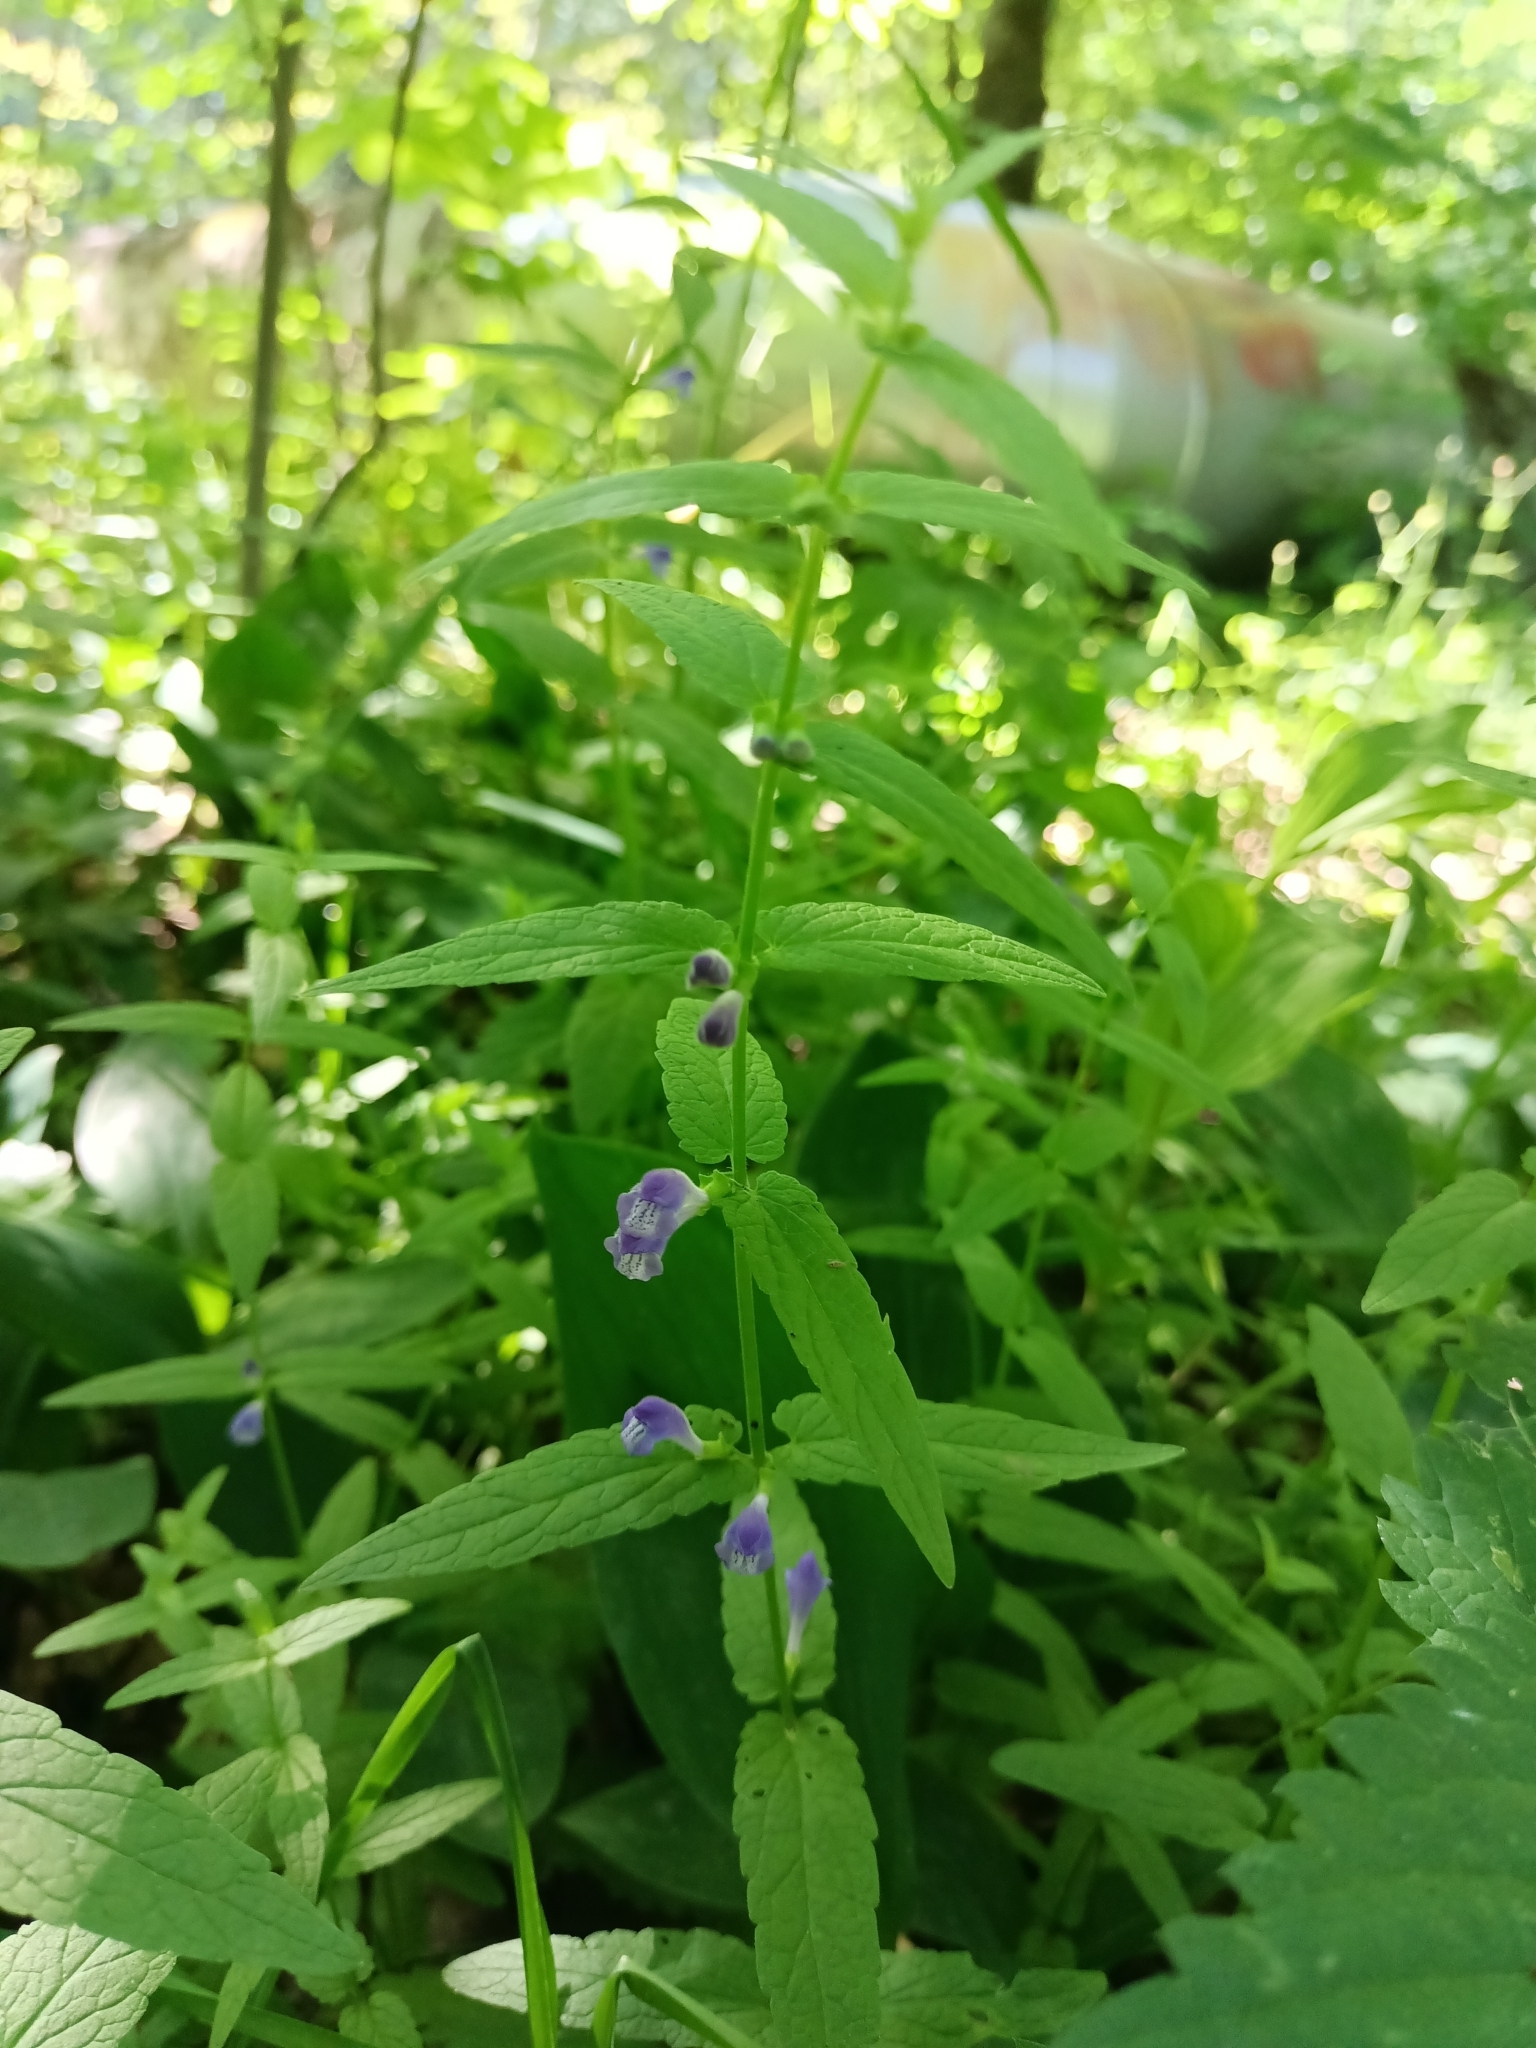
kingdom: Plantae
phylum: Tracheophyta
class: Magnoliopsida
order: Lamiales
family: Lamiaceae
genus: Scutellaria
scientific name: Scutellaria galericulata
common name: Skullcap
